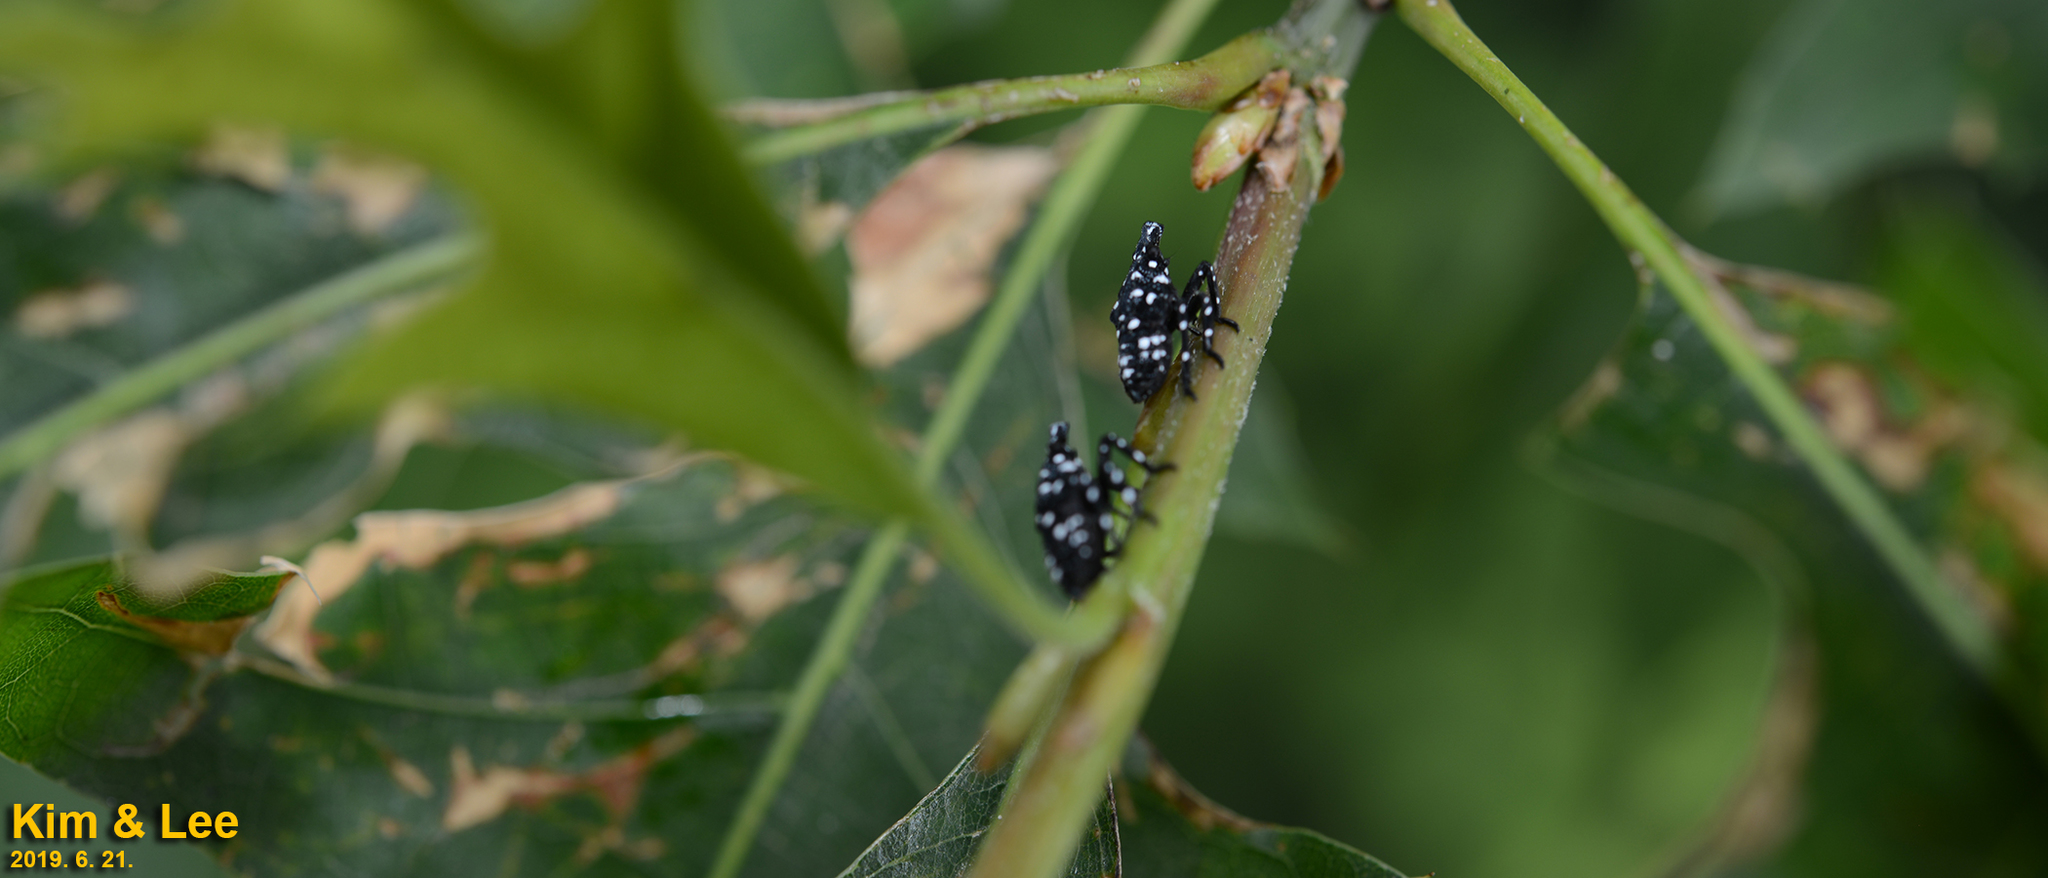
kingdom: Animalia
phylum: Arthropoda
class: Insecta
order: Hemiptera
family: Fulgoridae
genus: Lycorma
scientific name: Lycorma delicatula
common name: Spotted lanternfly
